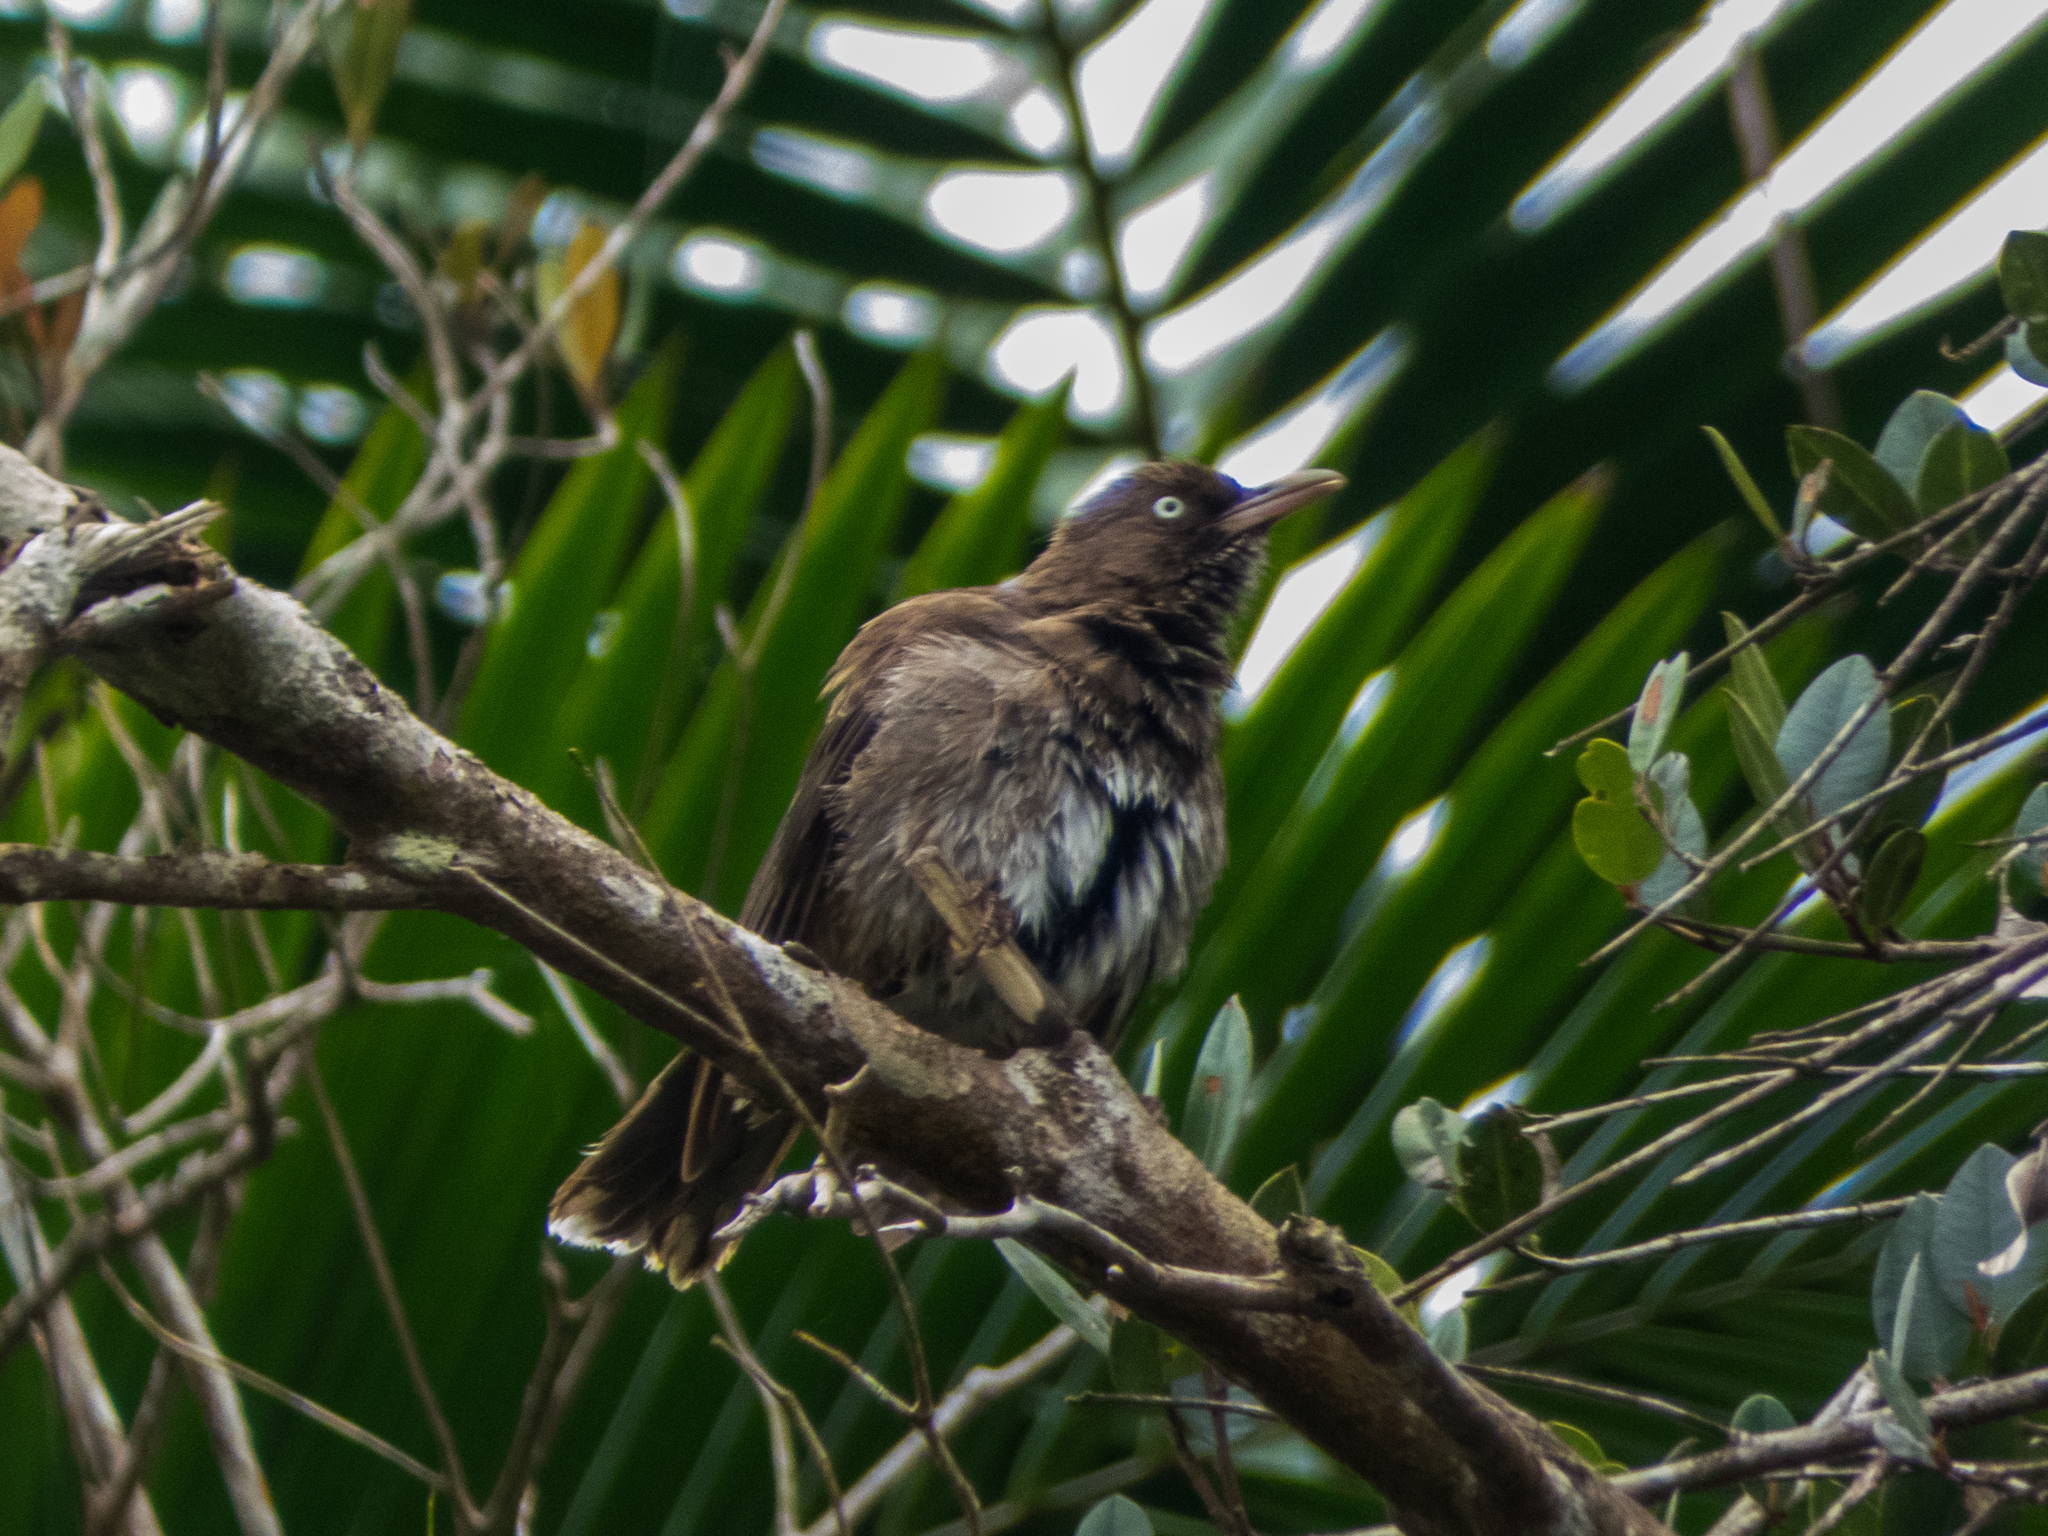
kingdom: Animalia
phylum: Chordata
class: Aves
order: Passeriformes
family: Mimidae
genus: Margarops
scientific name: Margarops fuscatus
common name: Pearly-eyed thrasher
